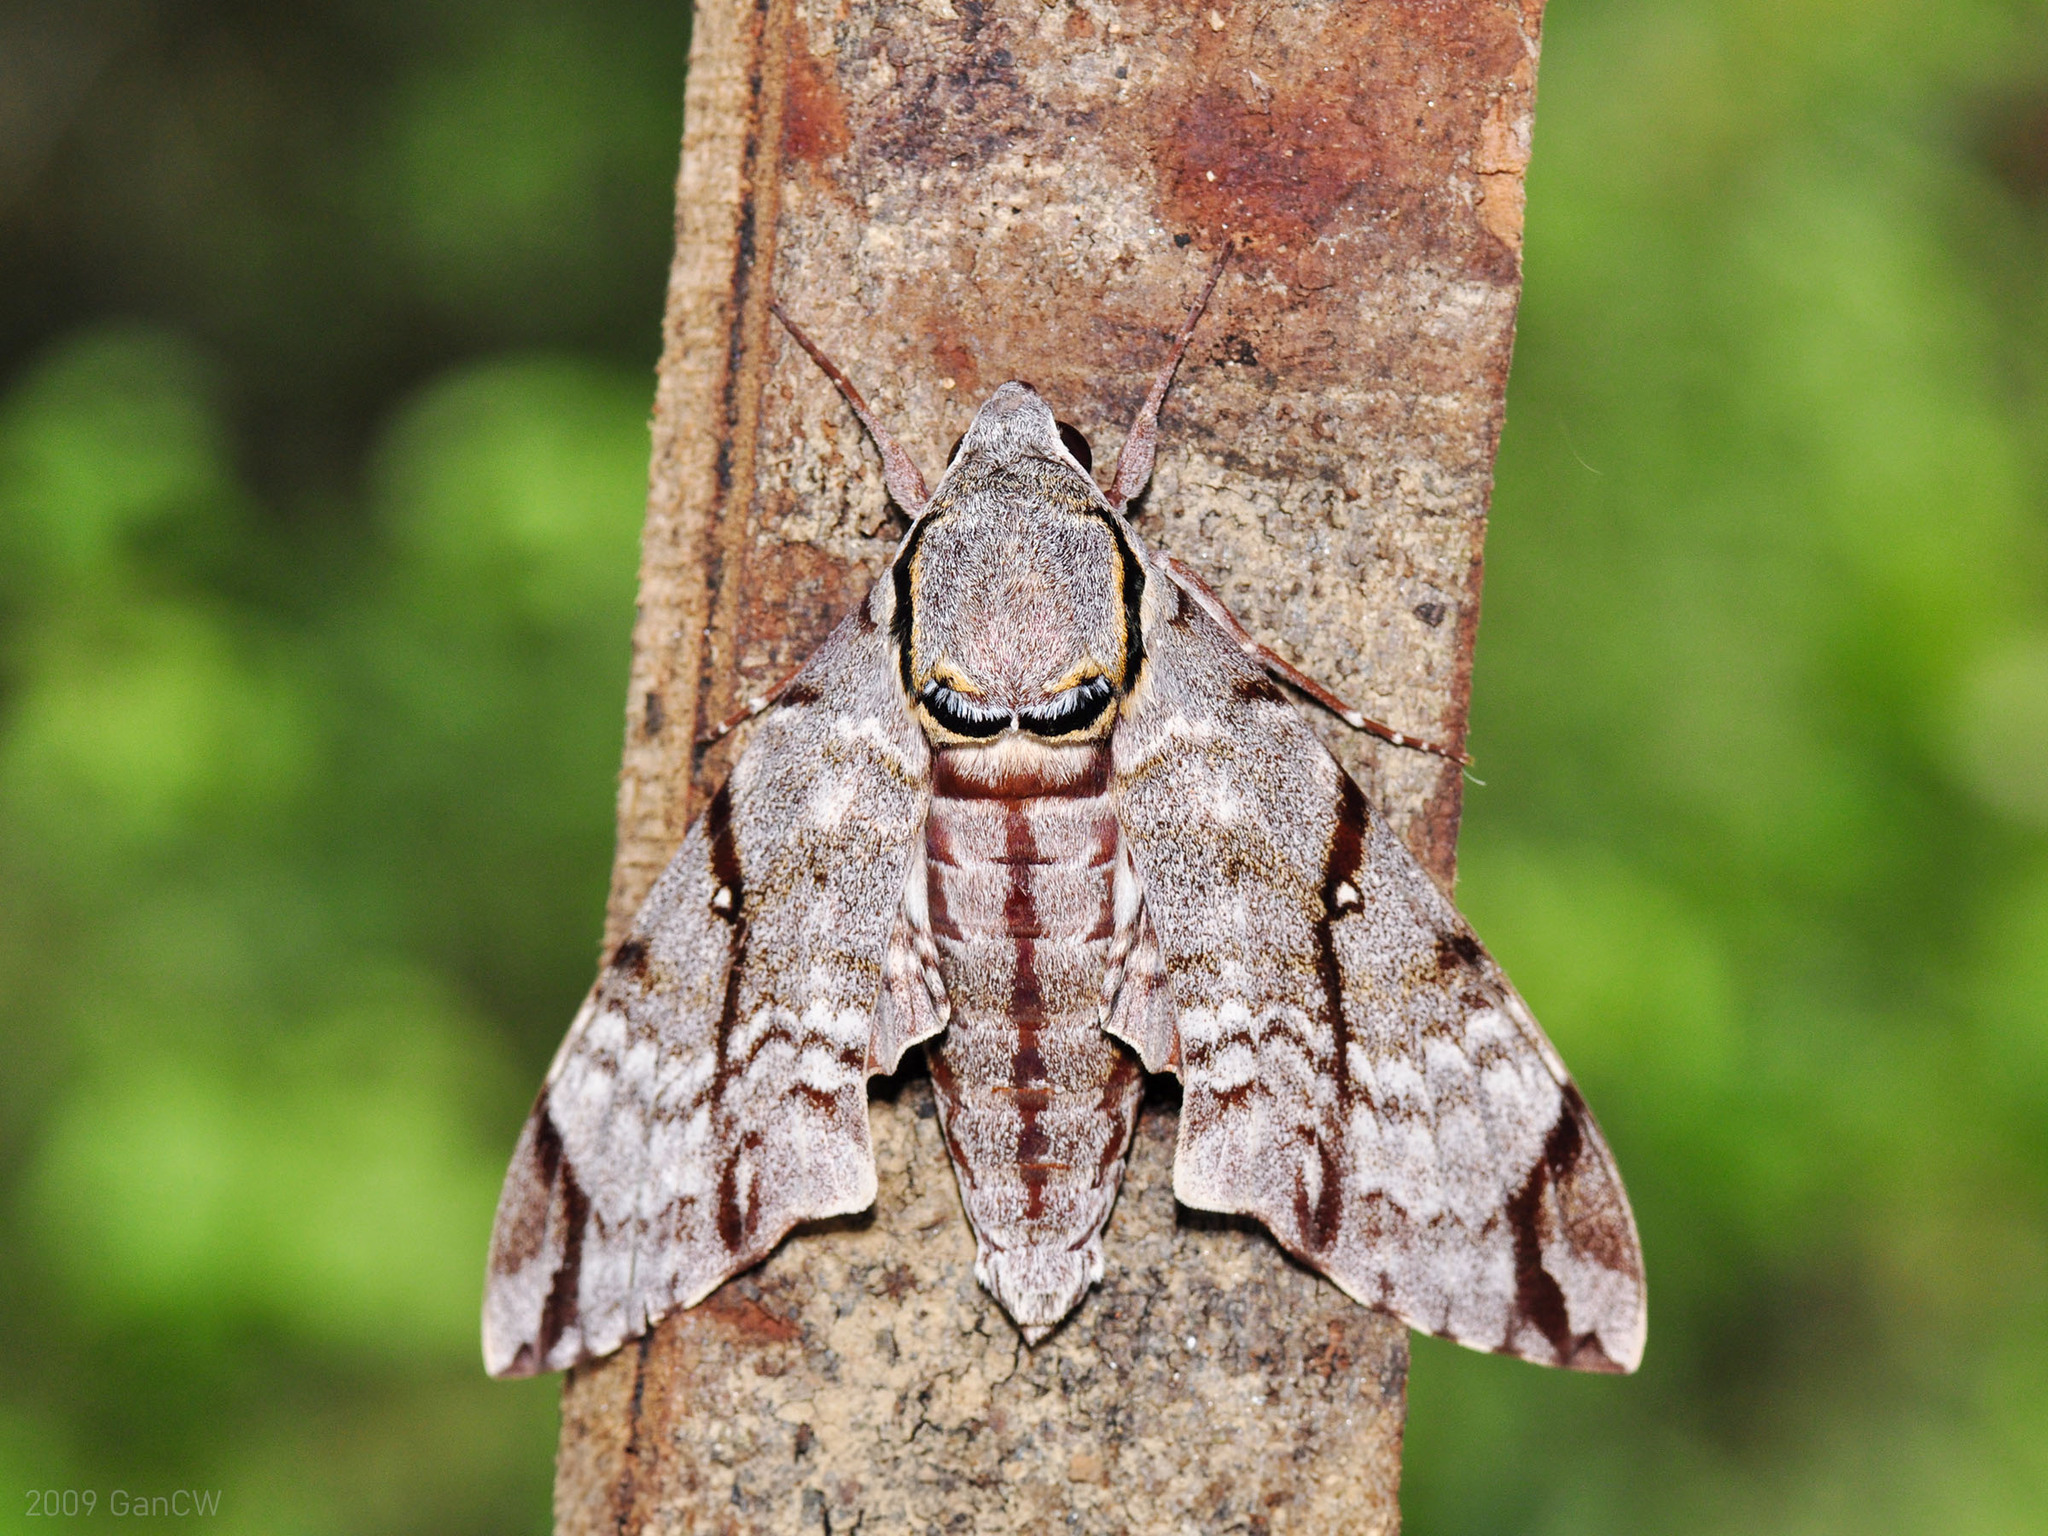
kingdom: Animalia
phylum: Arthropoda
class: Insecta
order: Lepidoptera
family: Sphingidae
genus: Notonagemia
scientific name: Notonagemia analis
